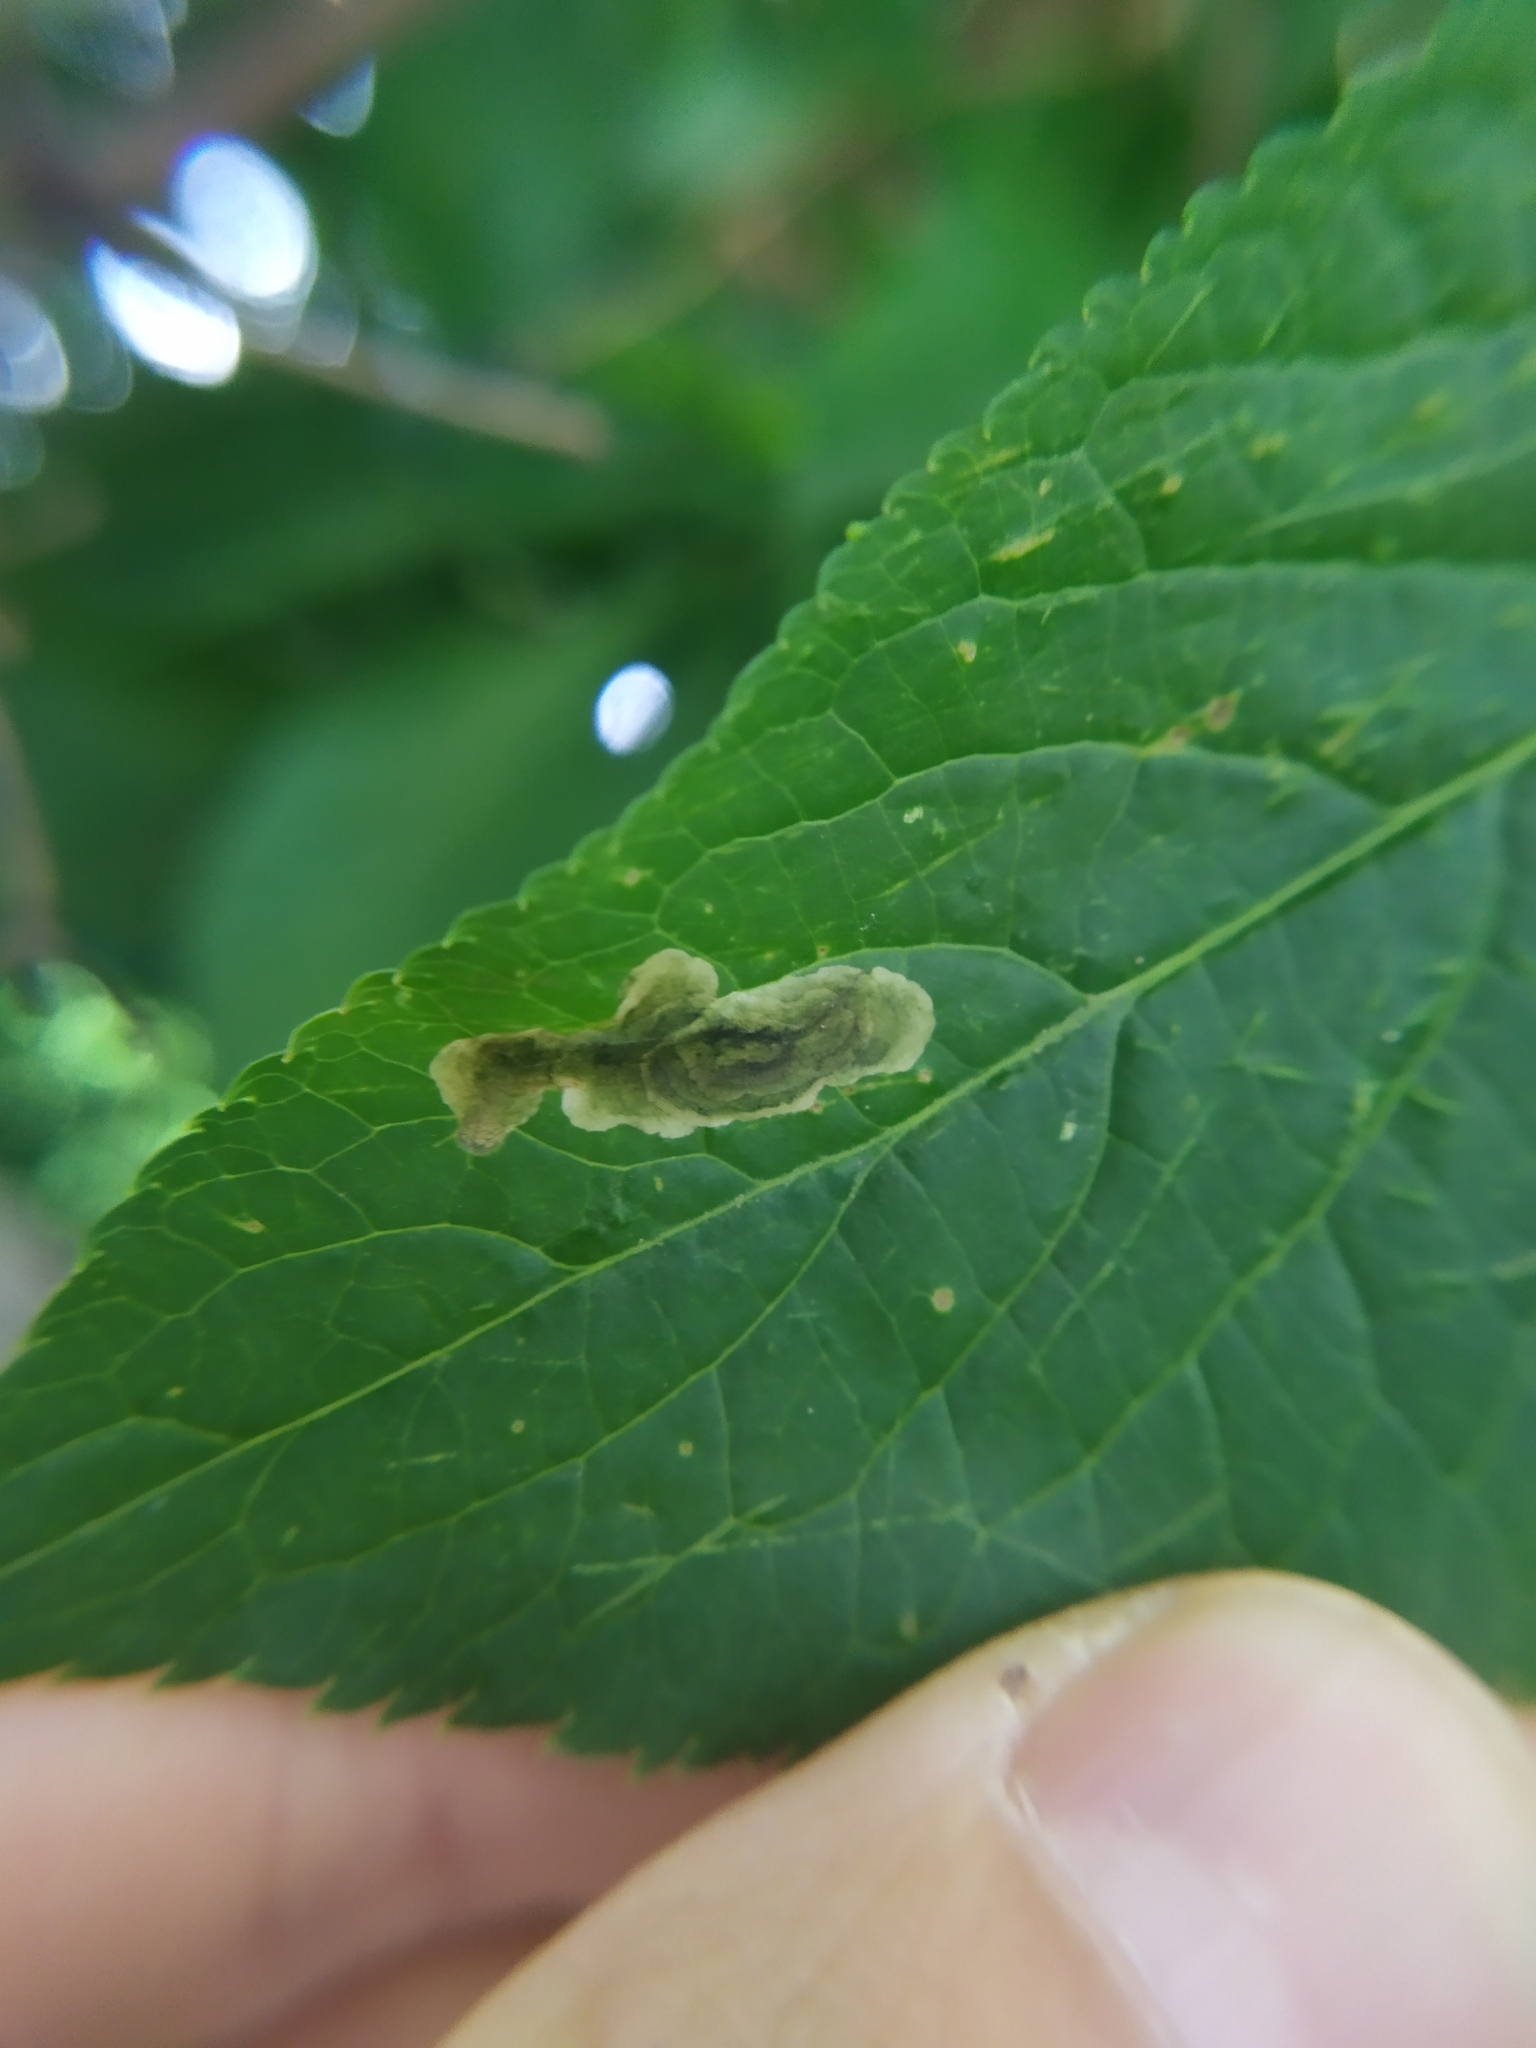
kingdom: Animalia
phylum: Arthropoda
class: Insecta
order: Diptera
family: Agromyzidae
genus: Liriomyza
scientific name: Liriomyza amoena
